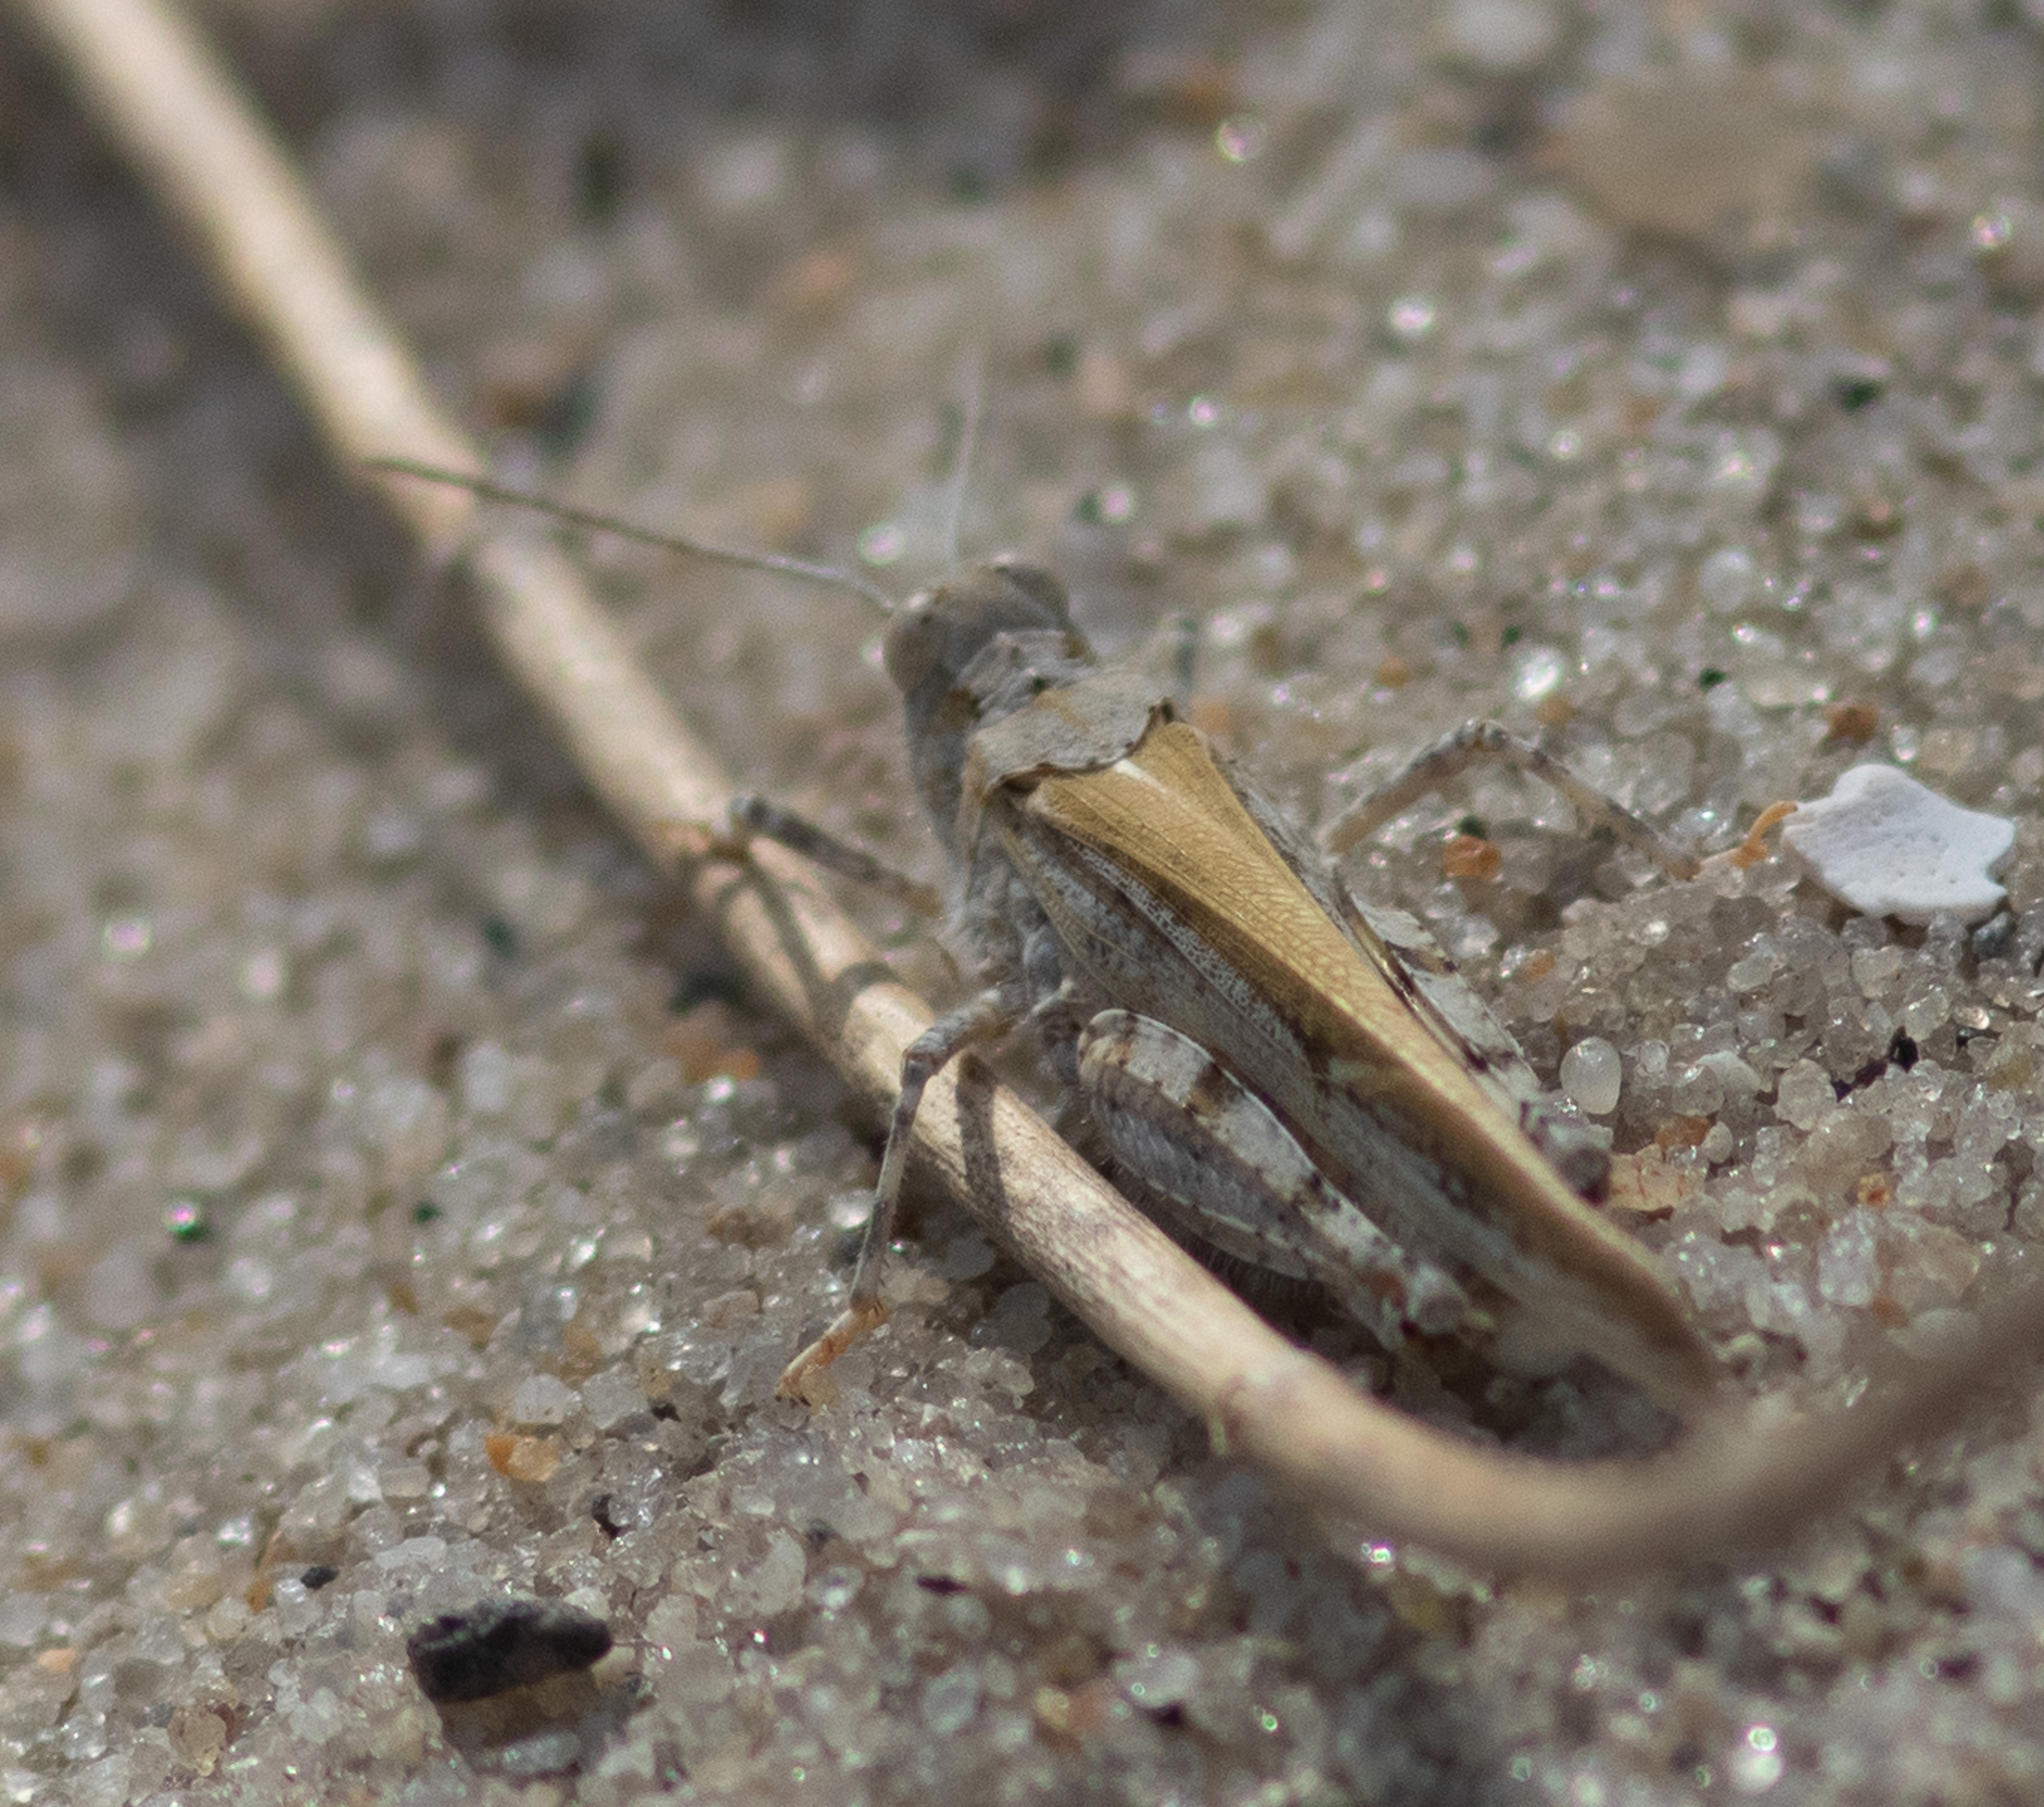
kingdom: Animalia
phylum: Arthropoda
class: Insecta
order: Orthoptera
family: Acrididae
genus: Trimerotropis
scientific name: Trimerotropis maritima
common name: Seaside locust
